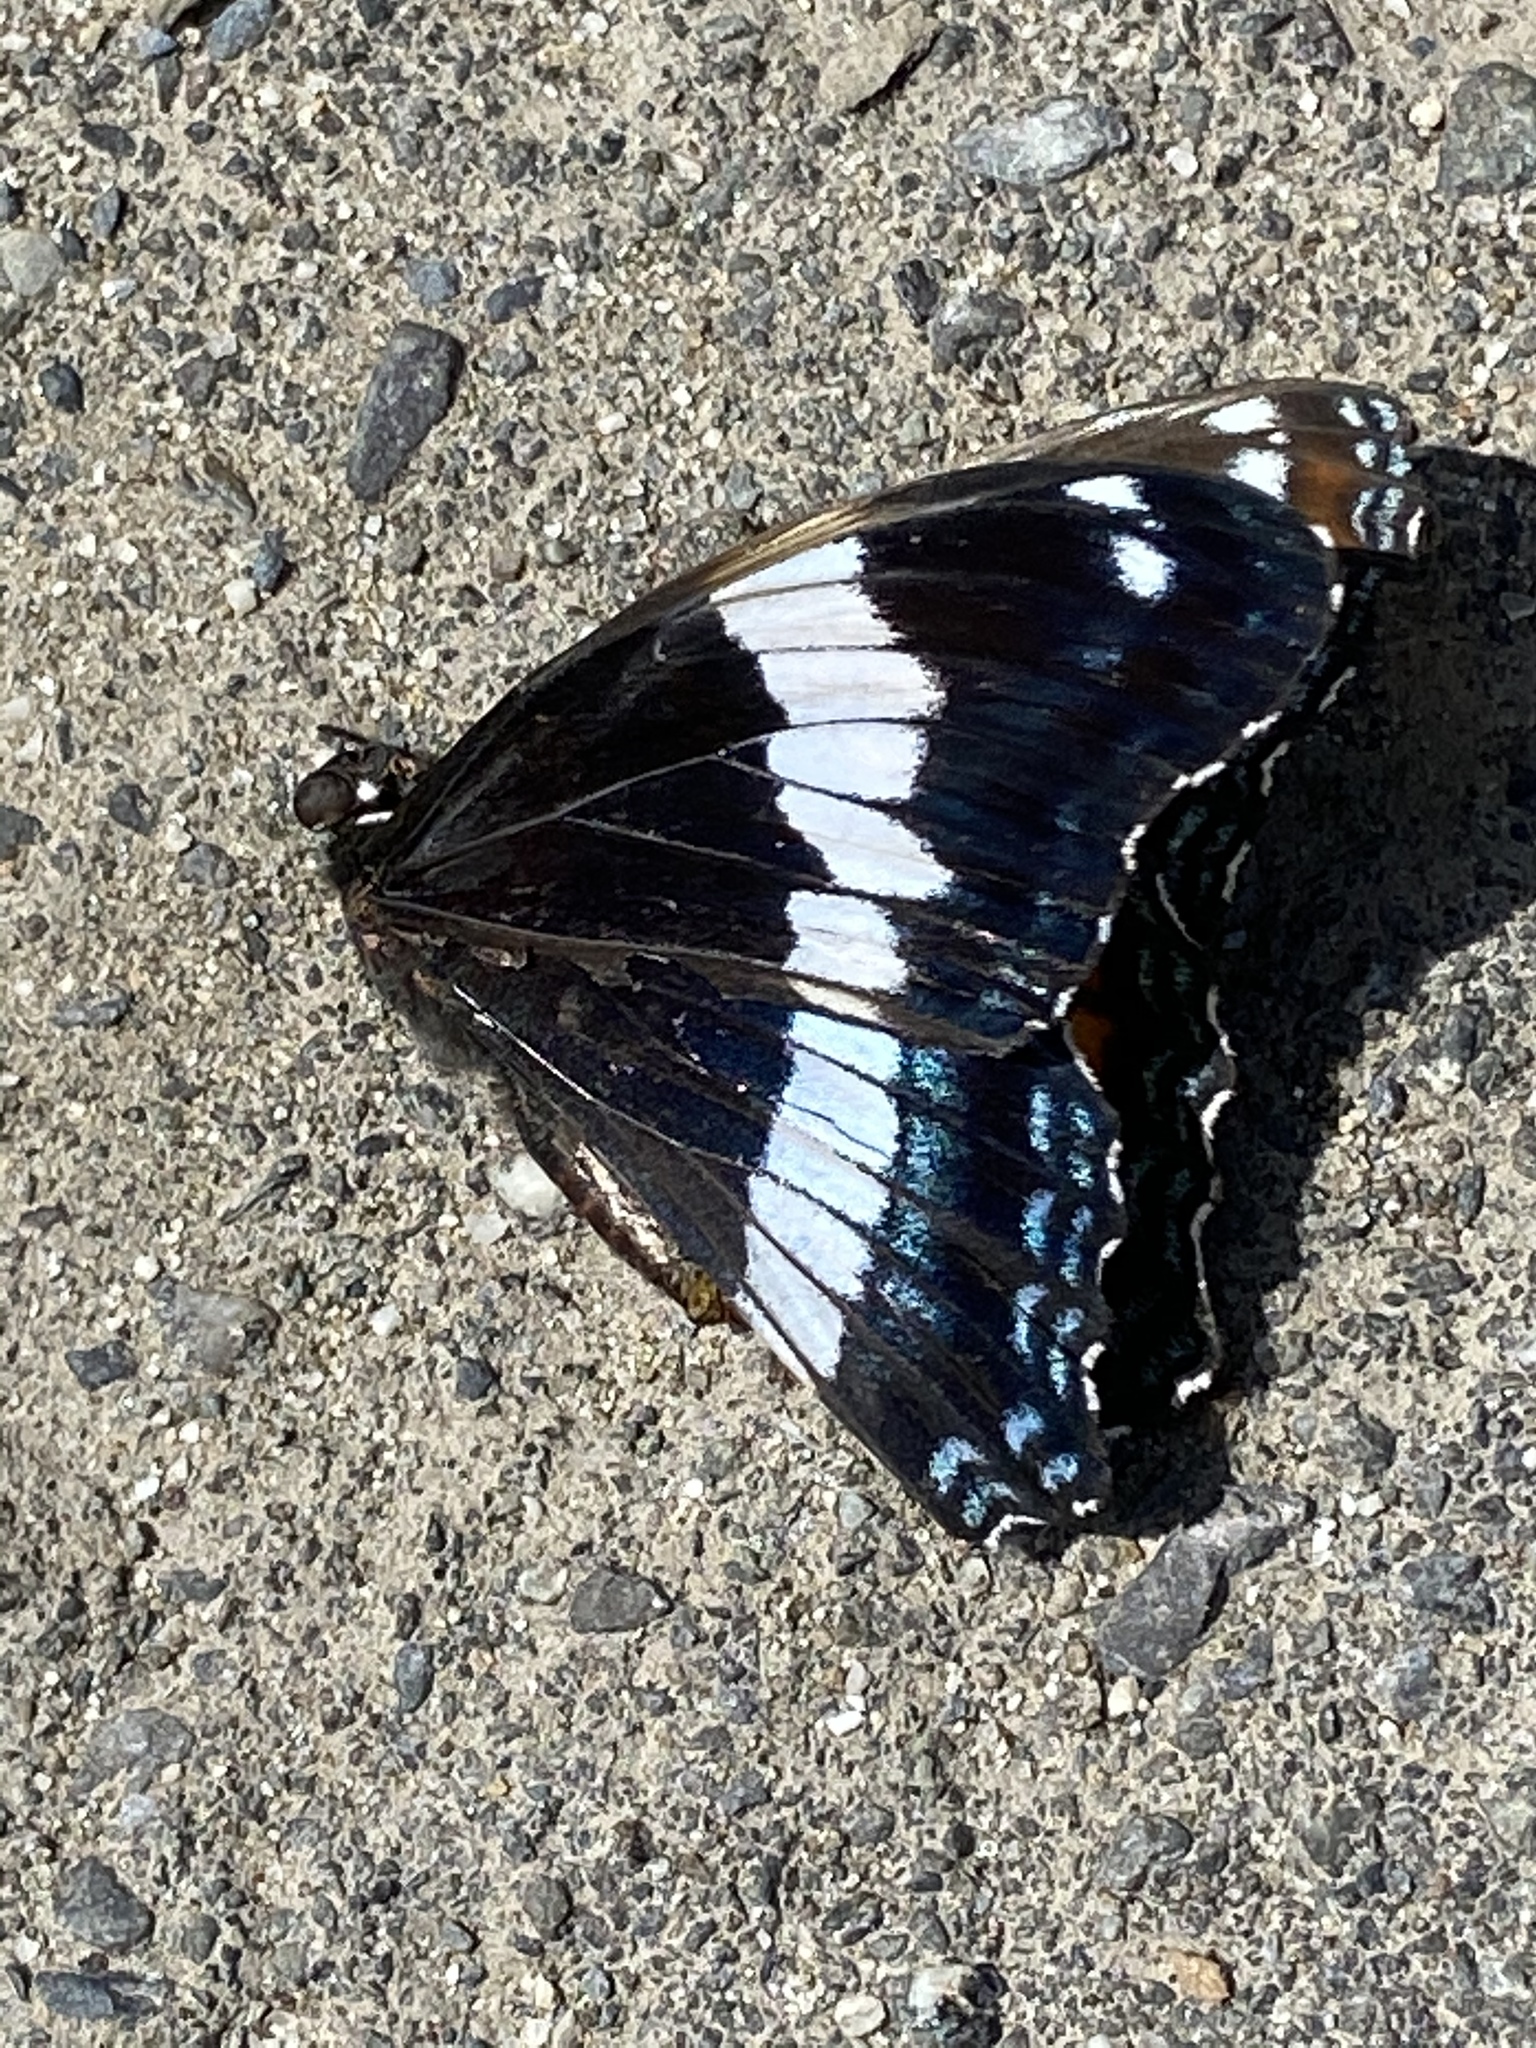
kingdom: Animalia
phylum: Arthropoda
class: Insecta
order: Lepidoptera
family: Nymphalidae
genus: Limenitis
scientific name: Limenitis arthemis
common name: Red-spotted admiral
